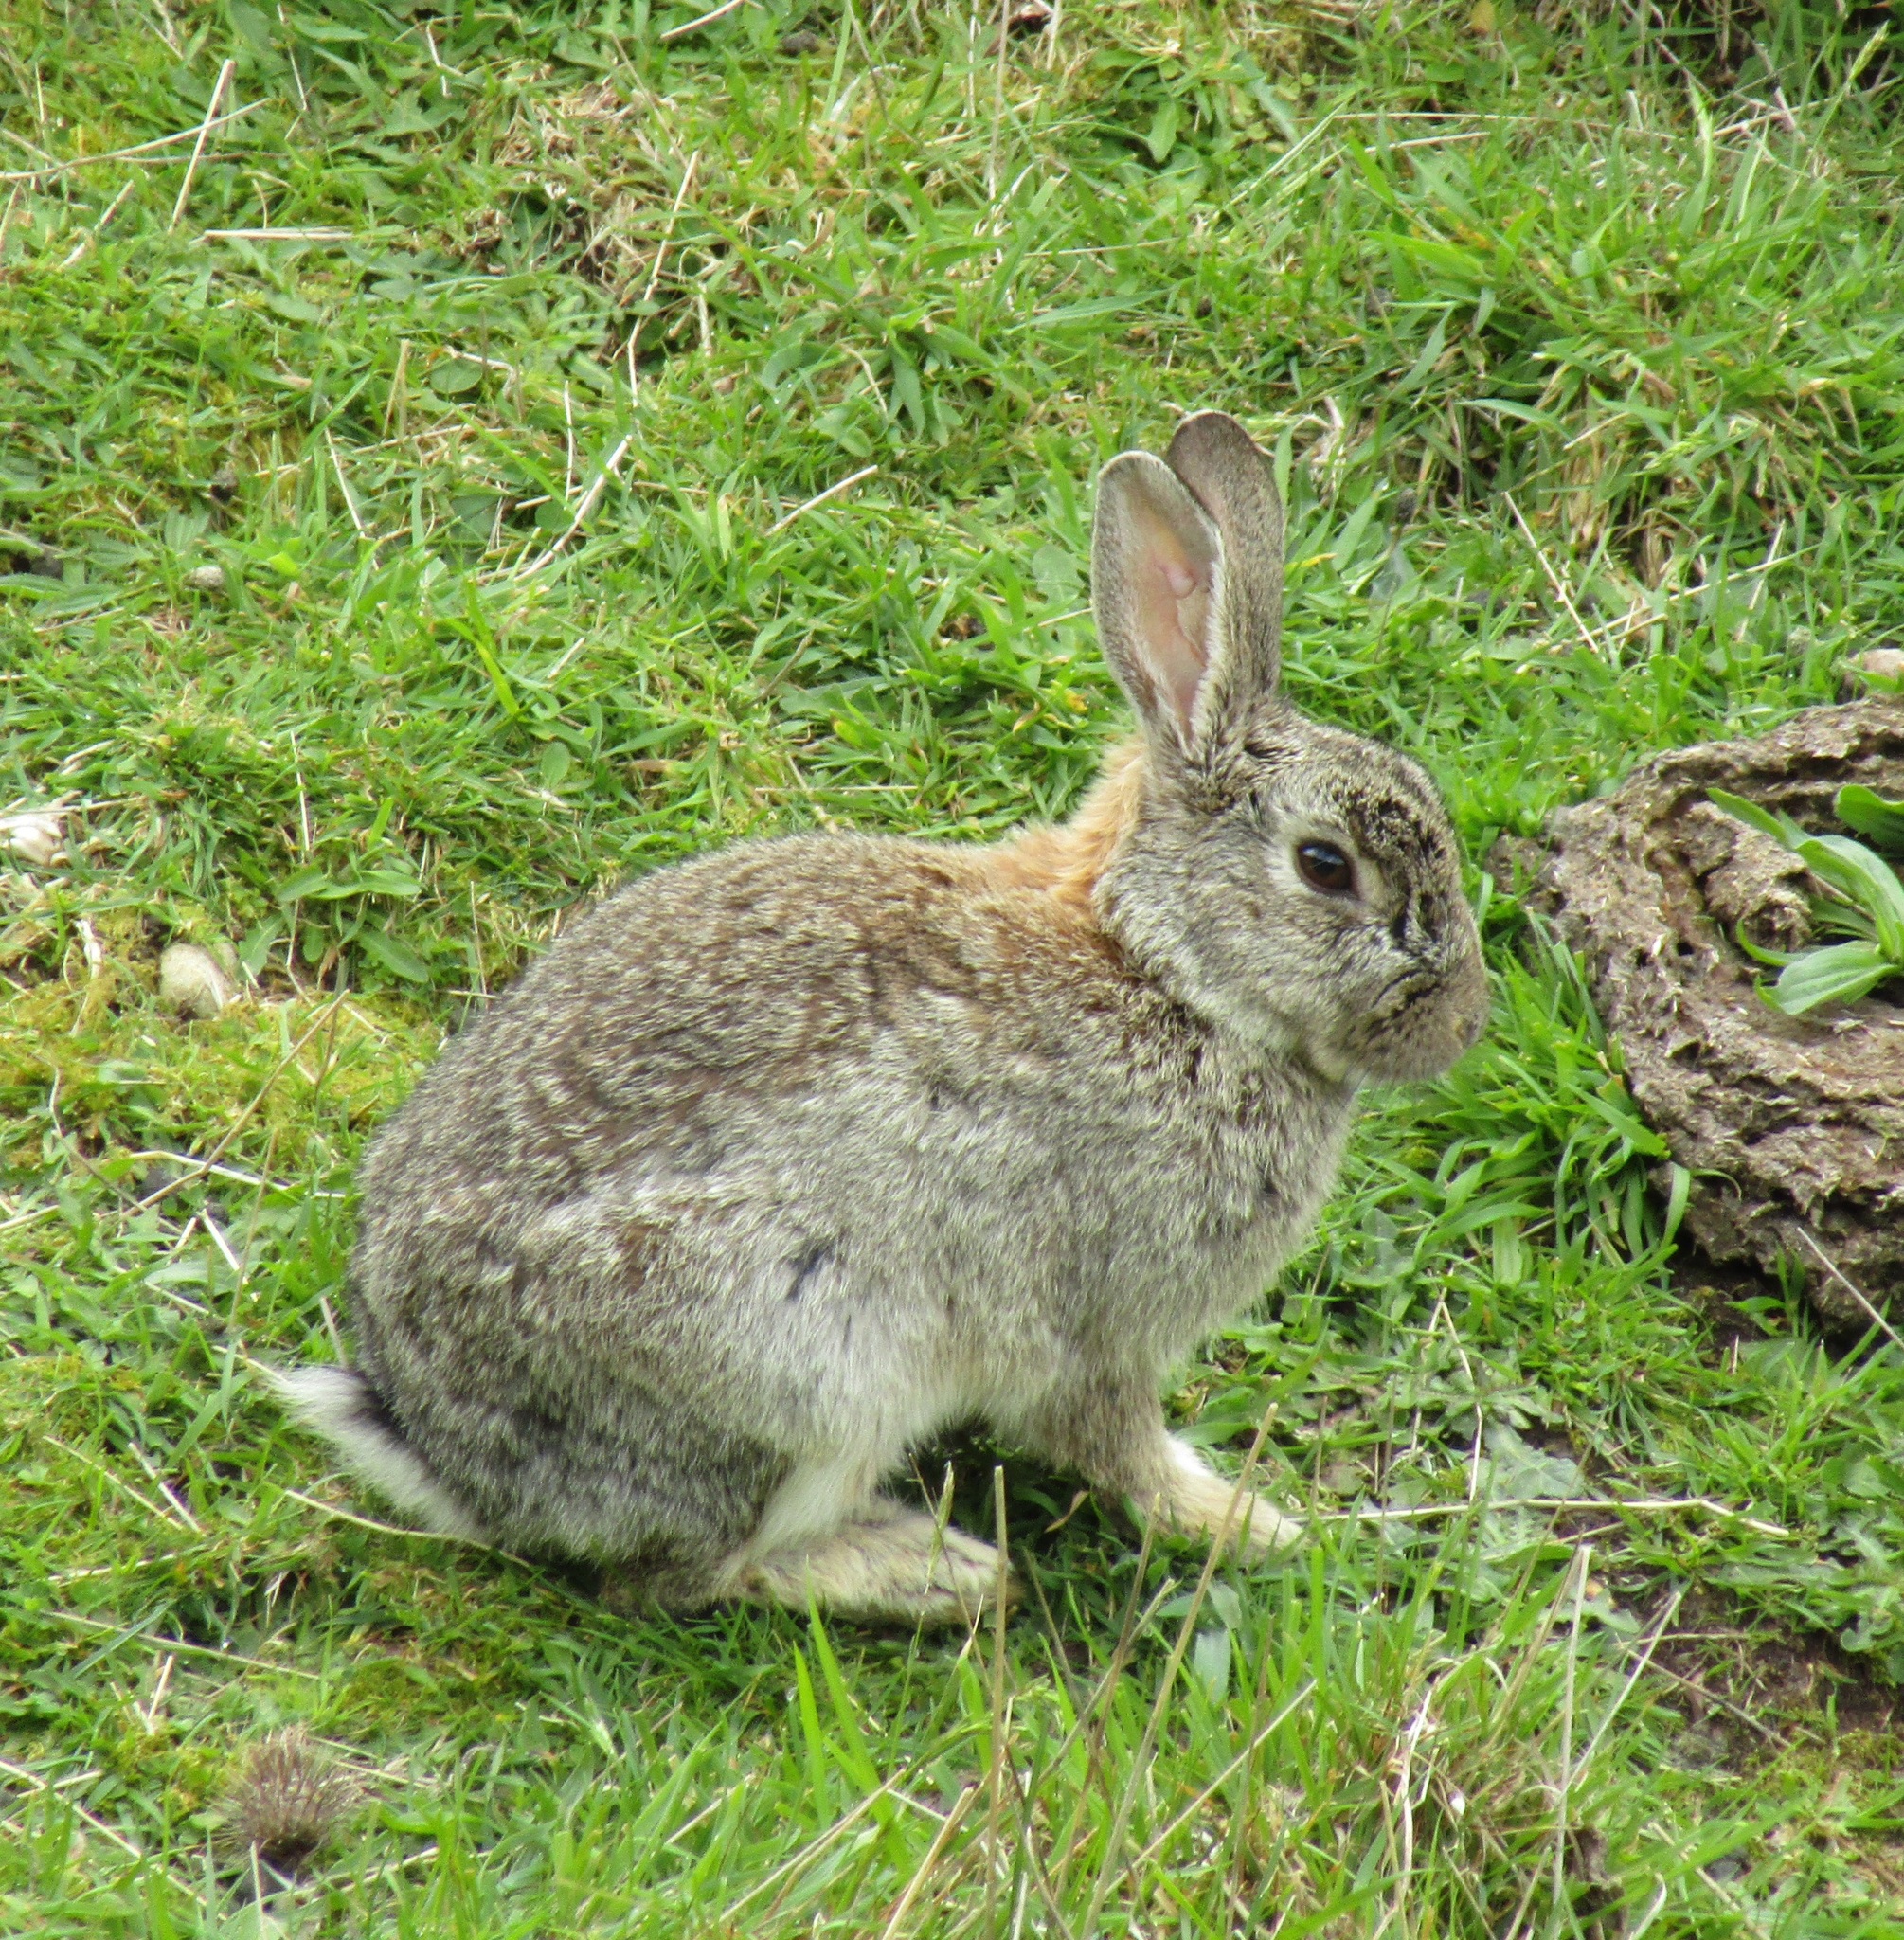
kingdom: Animalia
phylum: Chordata
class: Mammalia
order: Lagomorpha
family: Leporidae
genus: Oryctolagus
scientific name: Oryctolagus cuniculus
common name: European rabbit
